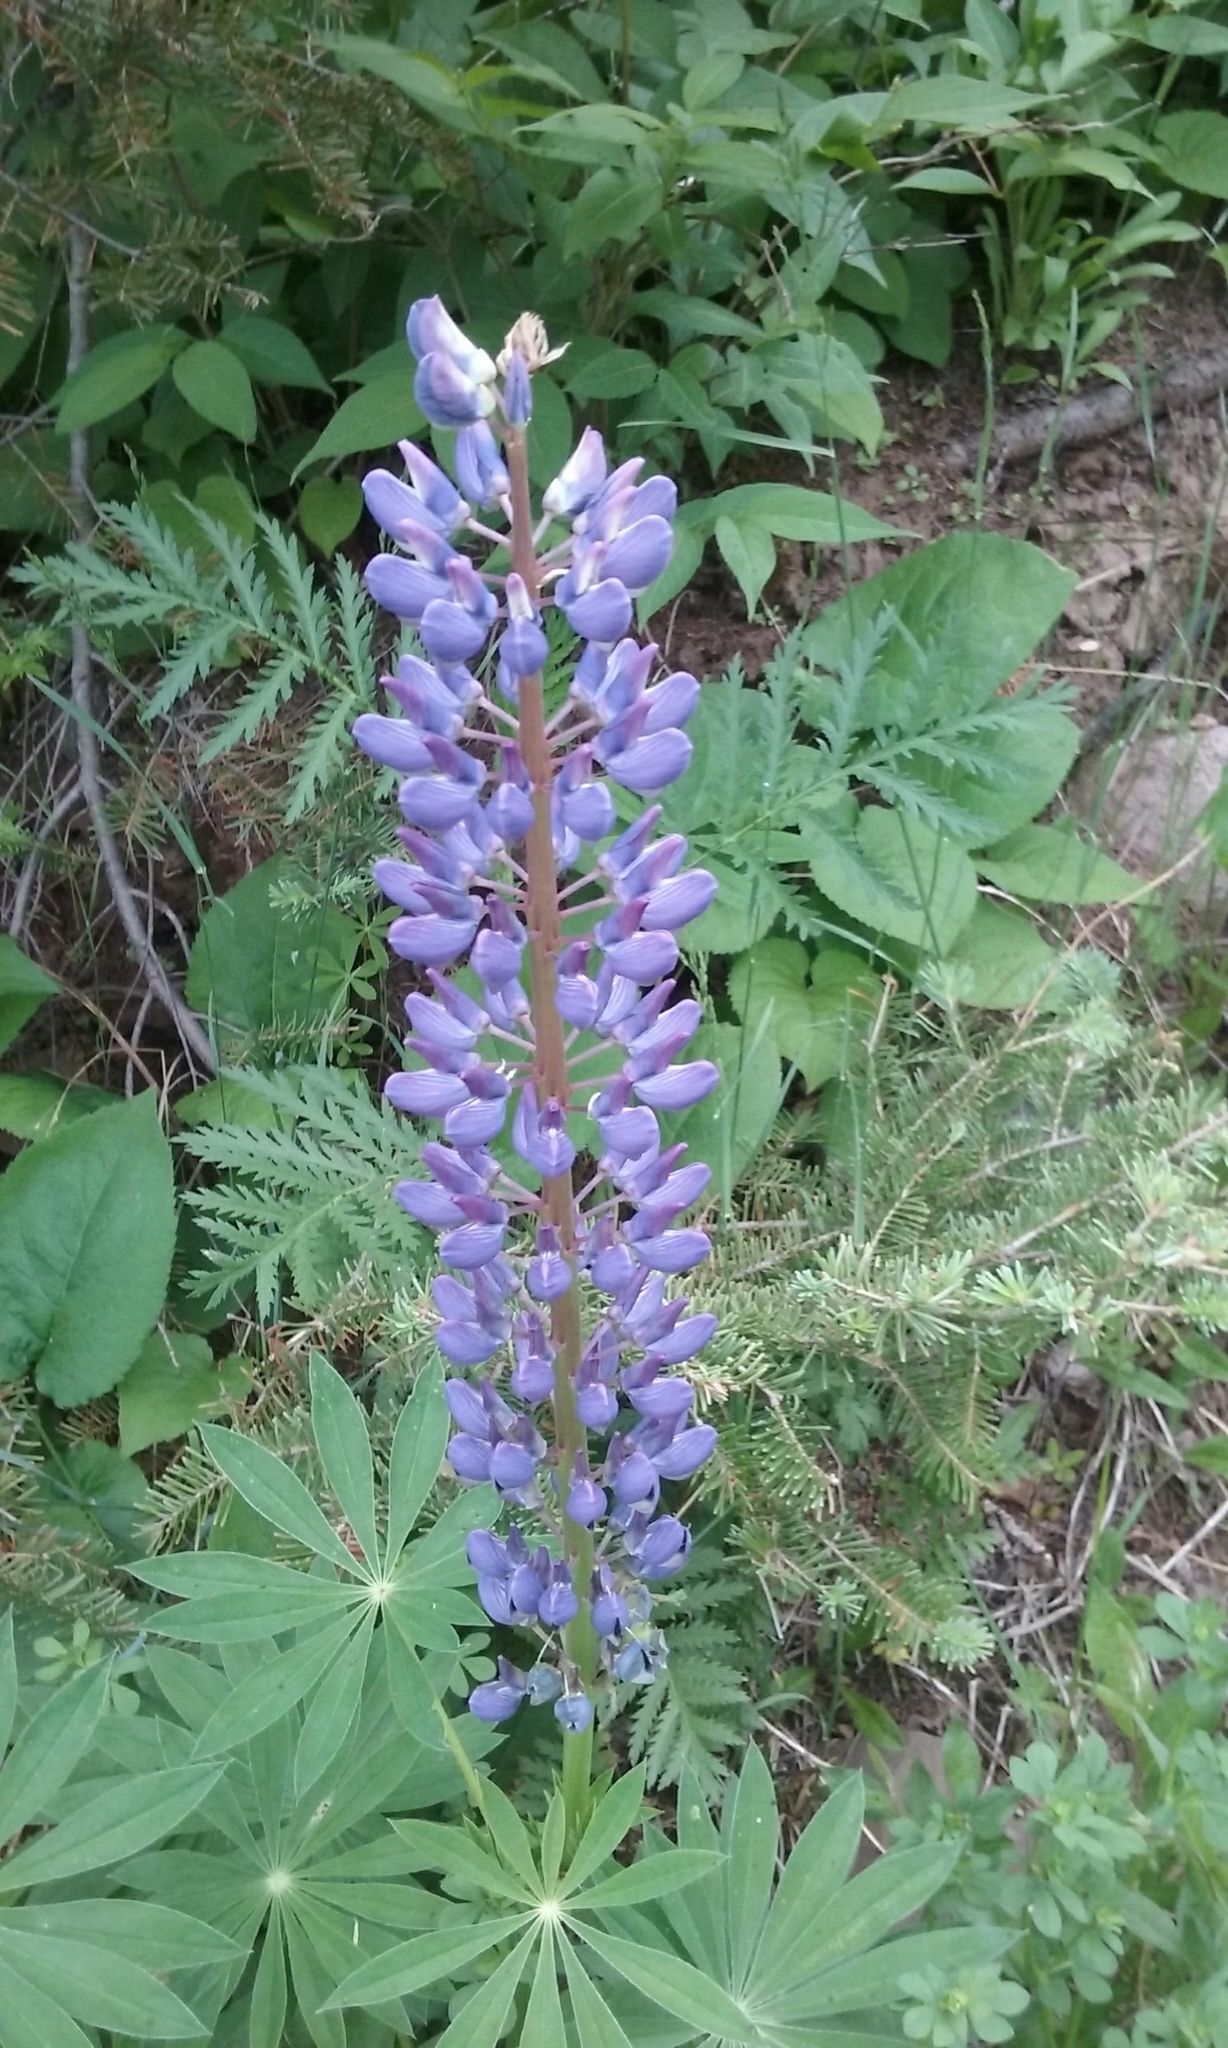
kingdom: Plantae
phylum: Tracheophyta
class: Magnoliopsida
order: Fabales
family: Fabaceae
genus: Lupinus
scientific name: Lupinus polyphyllus
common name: Garden lupin
